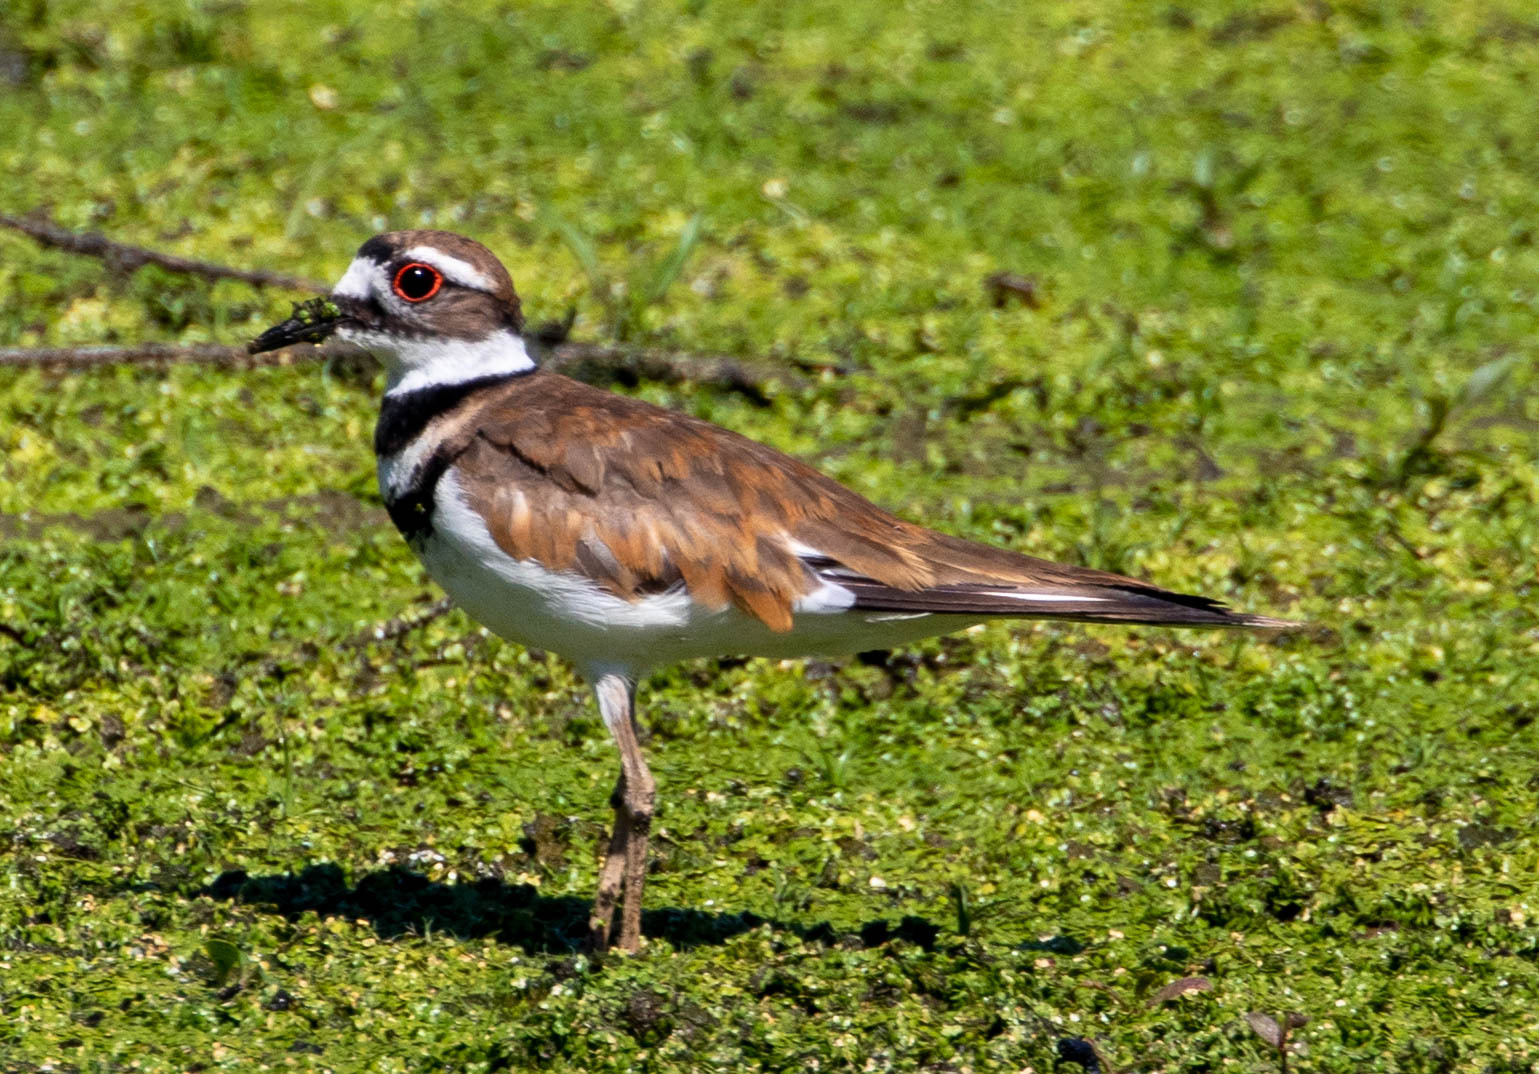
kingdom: Animalia
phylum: Chordata
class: Aves
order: Charadriiformes
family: Charadriidae
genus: Charadrius
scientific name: Charadrius vociferus
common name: Killdeer
